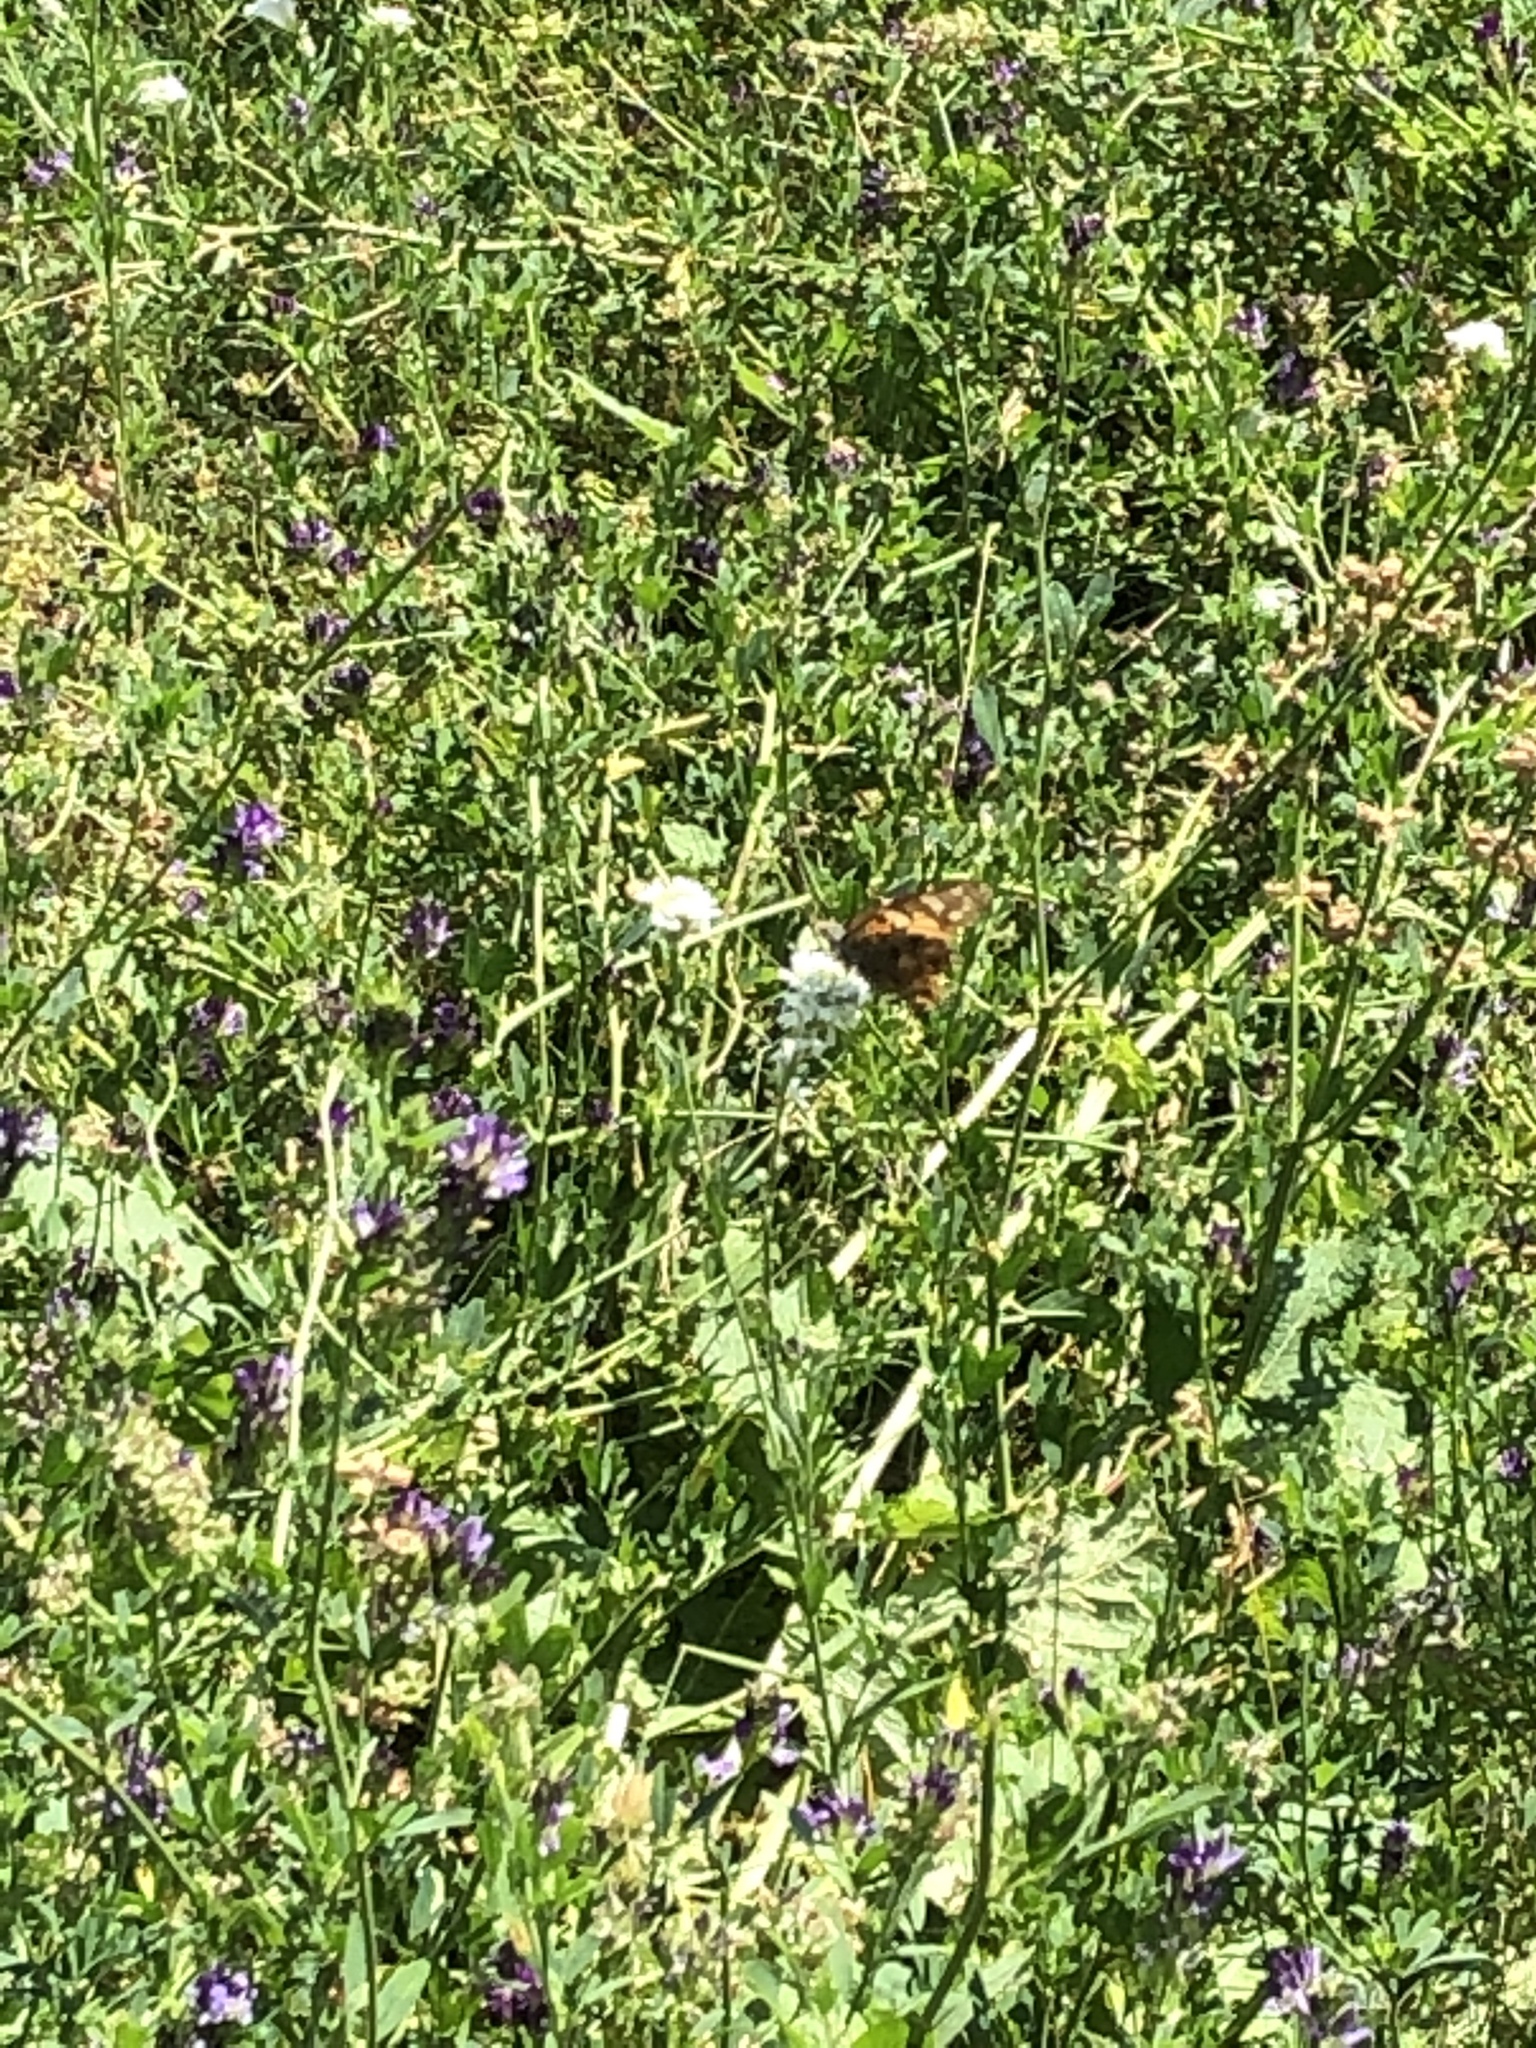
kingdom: Animalia
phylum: Arthropoda
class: Insecta
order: Lepidoptera
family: Nymphalidae
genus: Vanessa
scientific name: Vanessa cardui
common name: Painted lady
